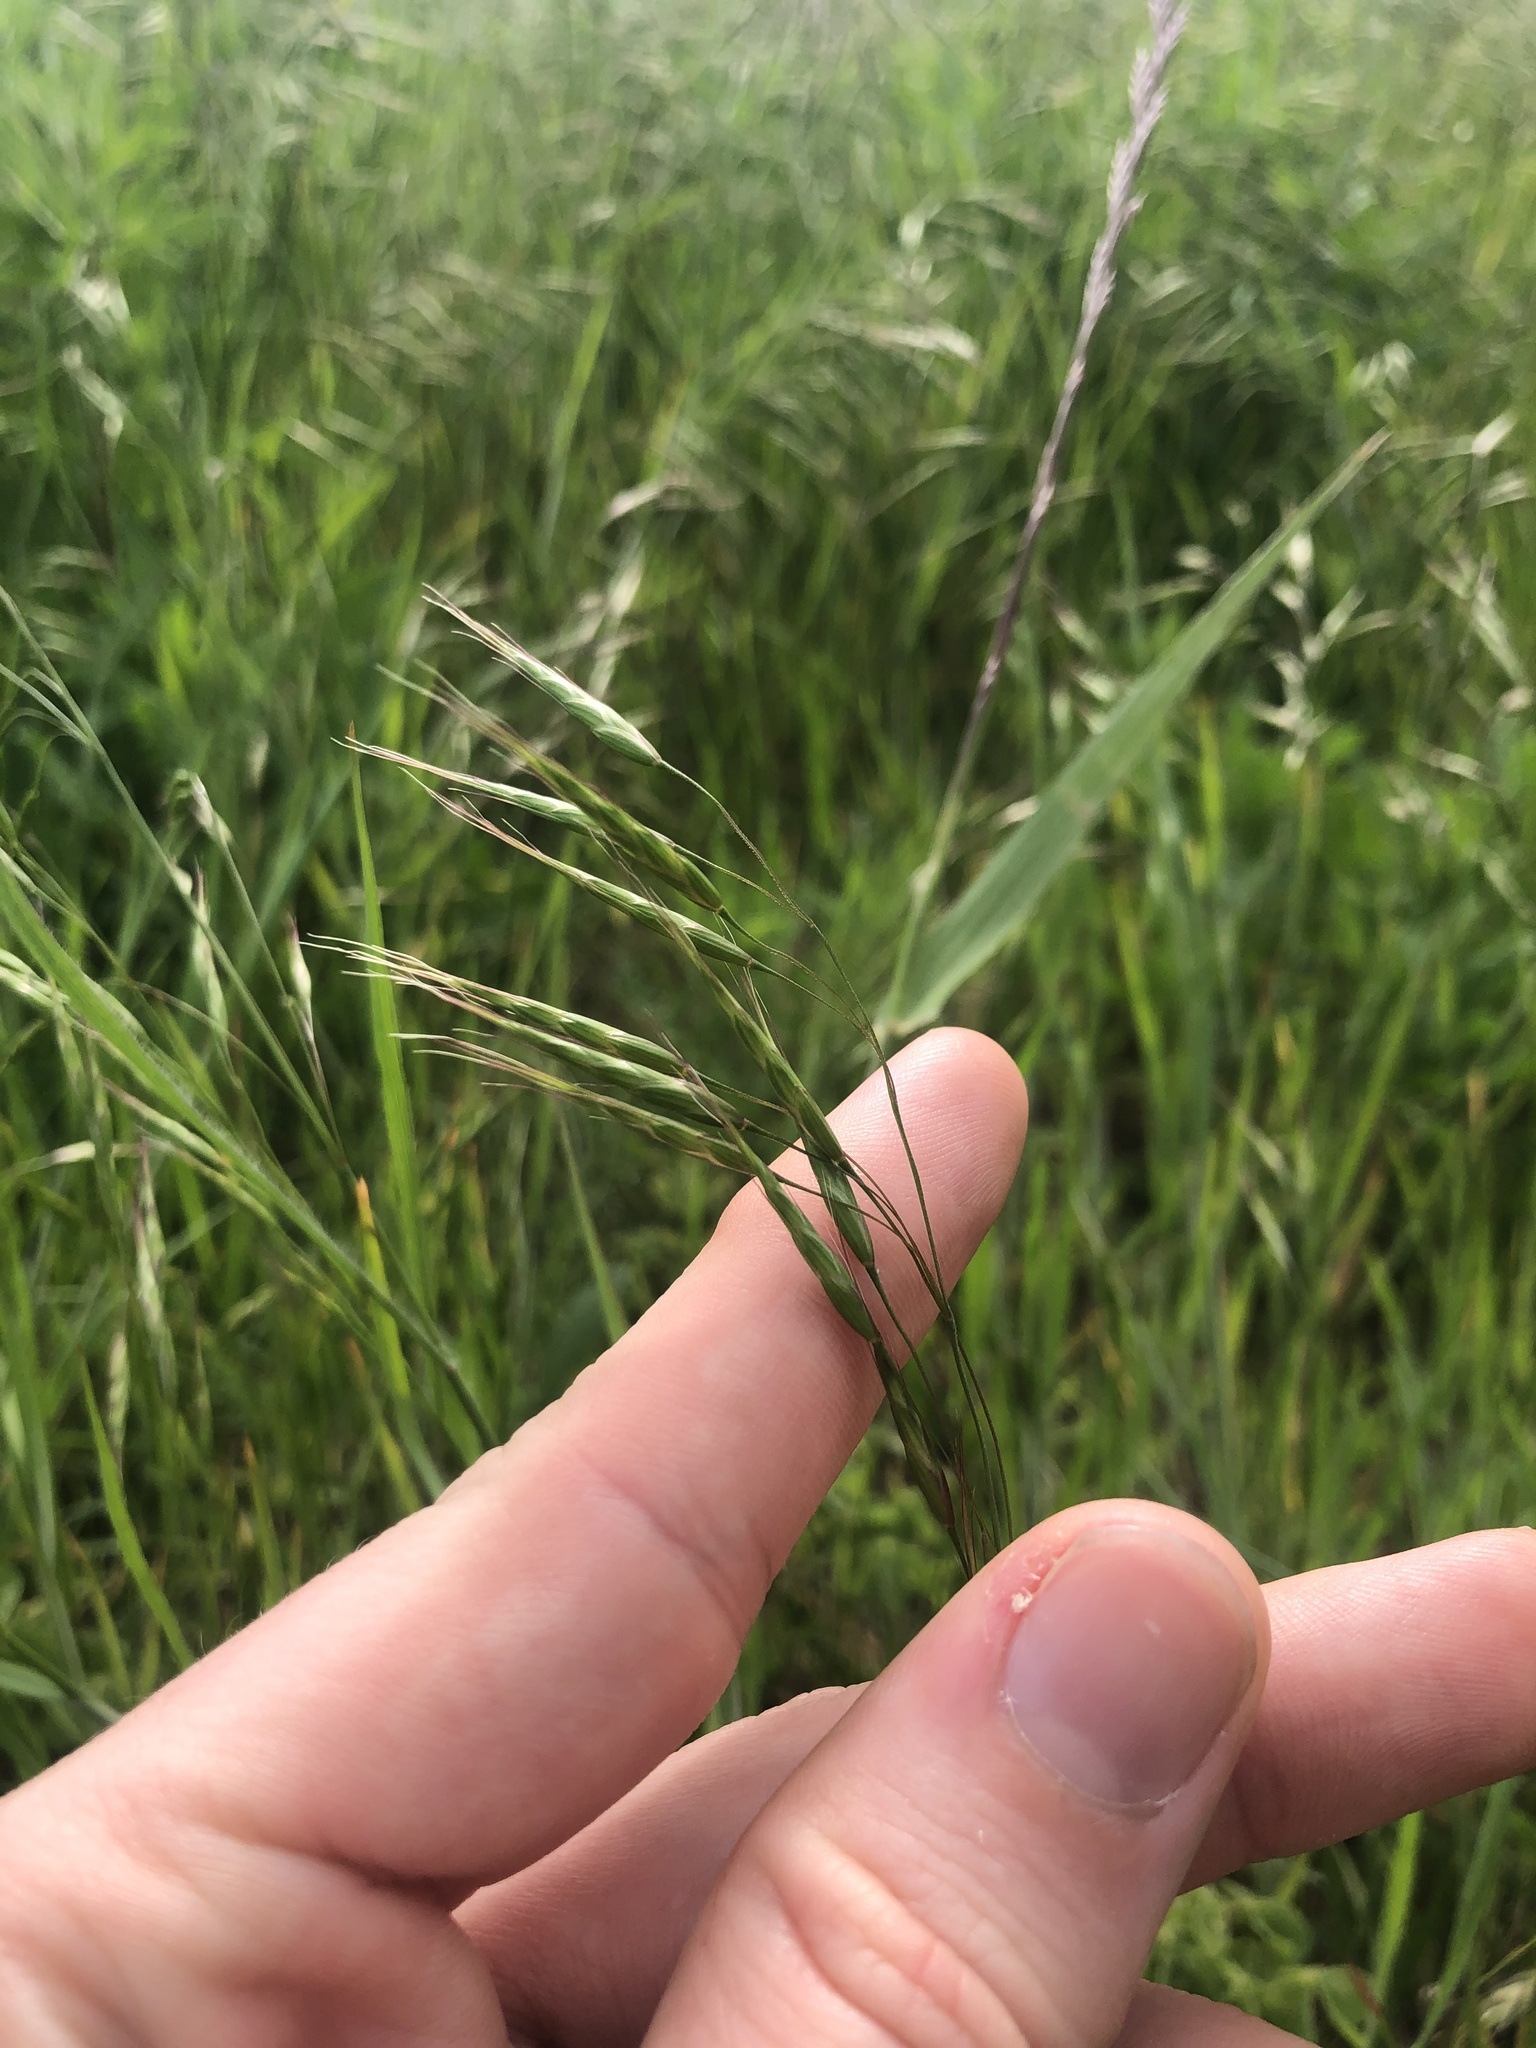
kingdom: Plantae
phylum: Tracheophyta
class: Liliopsida
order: Poales
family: Poaceae
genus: Bromus
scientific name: Bromus japonicus
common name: Japanese brome
